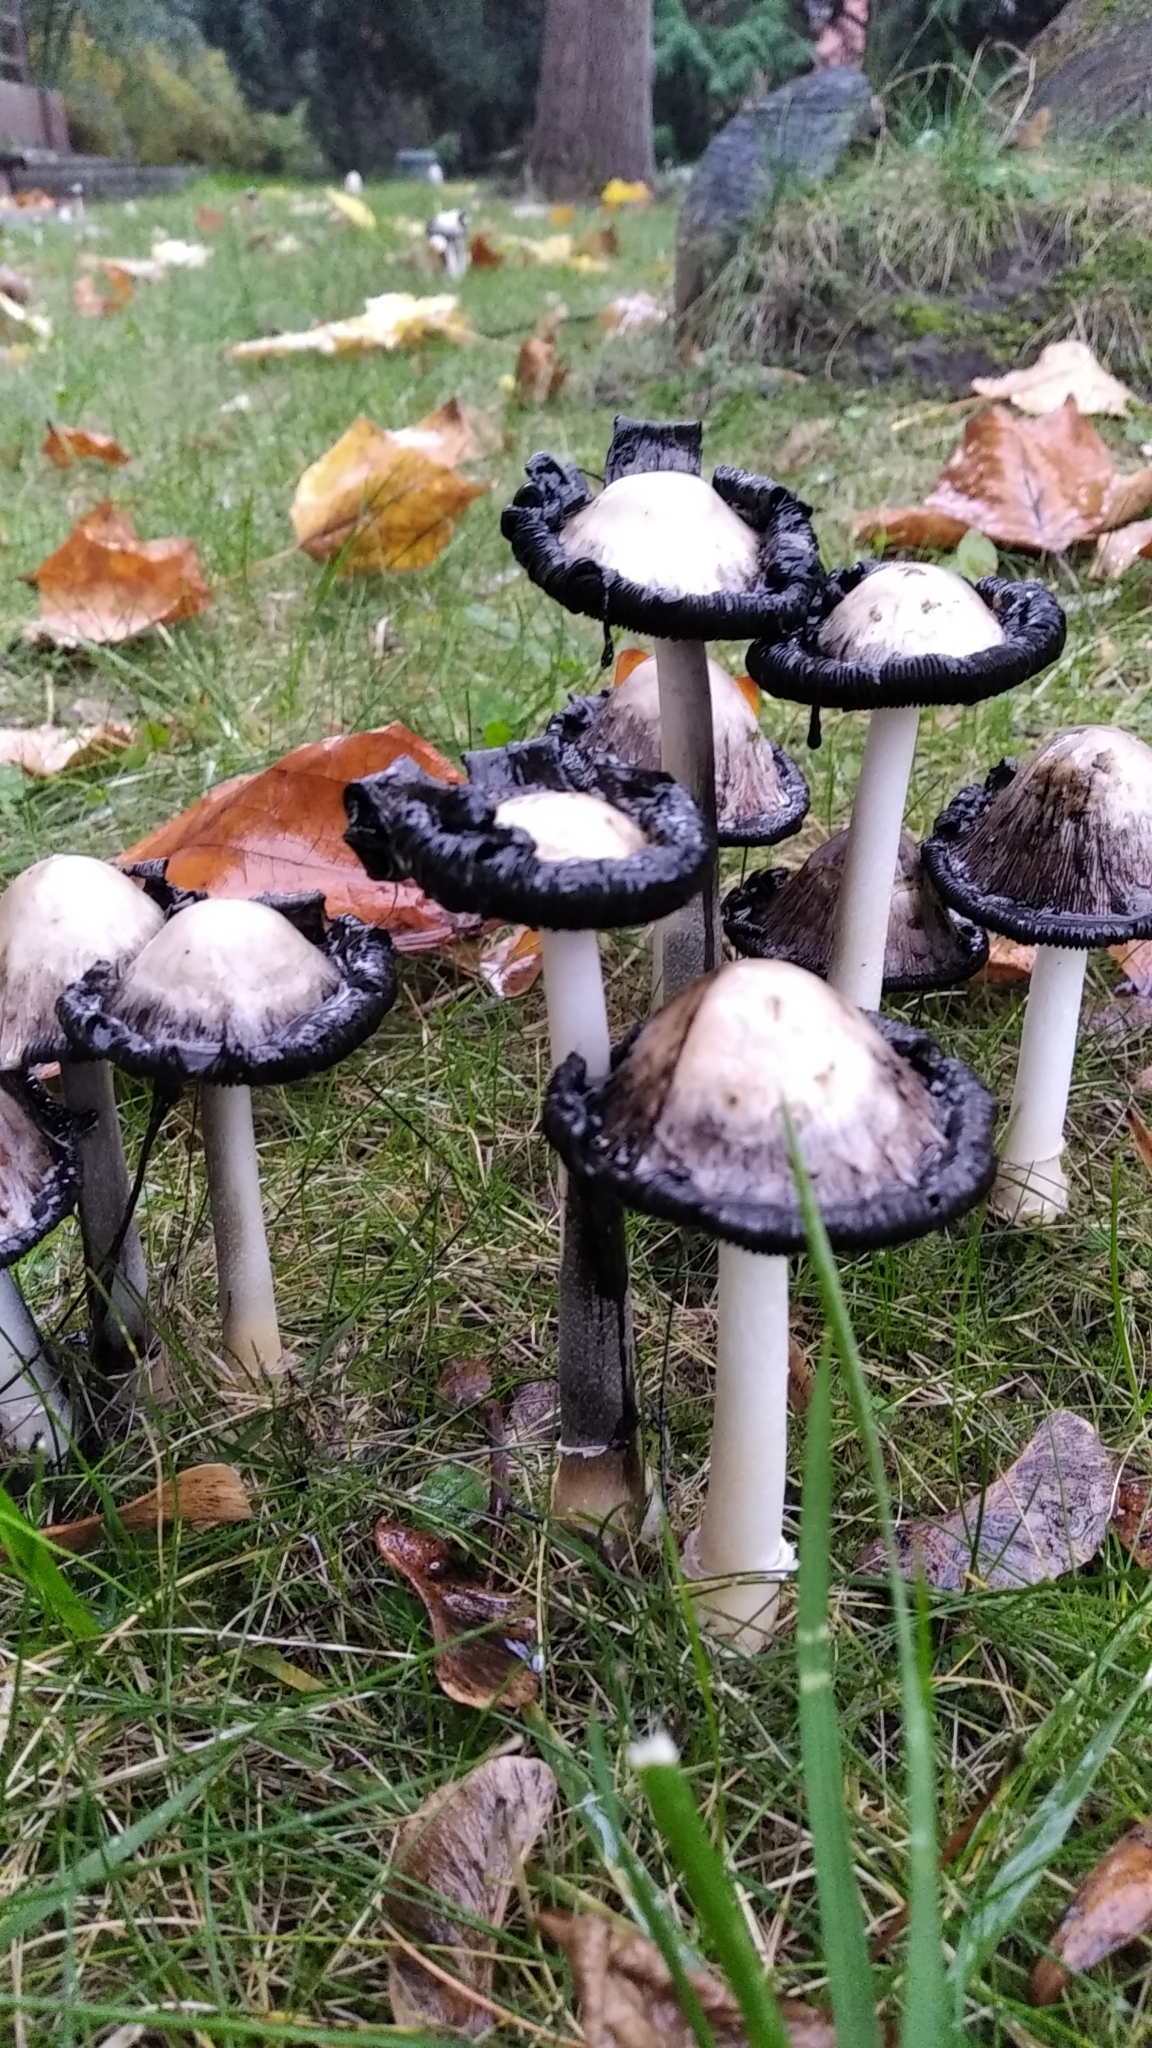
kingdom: Fungi
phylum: Basidiomycota
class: Agaricomycetes
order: Agaricales
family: Agaricaceae
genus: Coprinus
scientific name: Coprinus comatus
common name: Lawyer's wig
